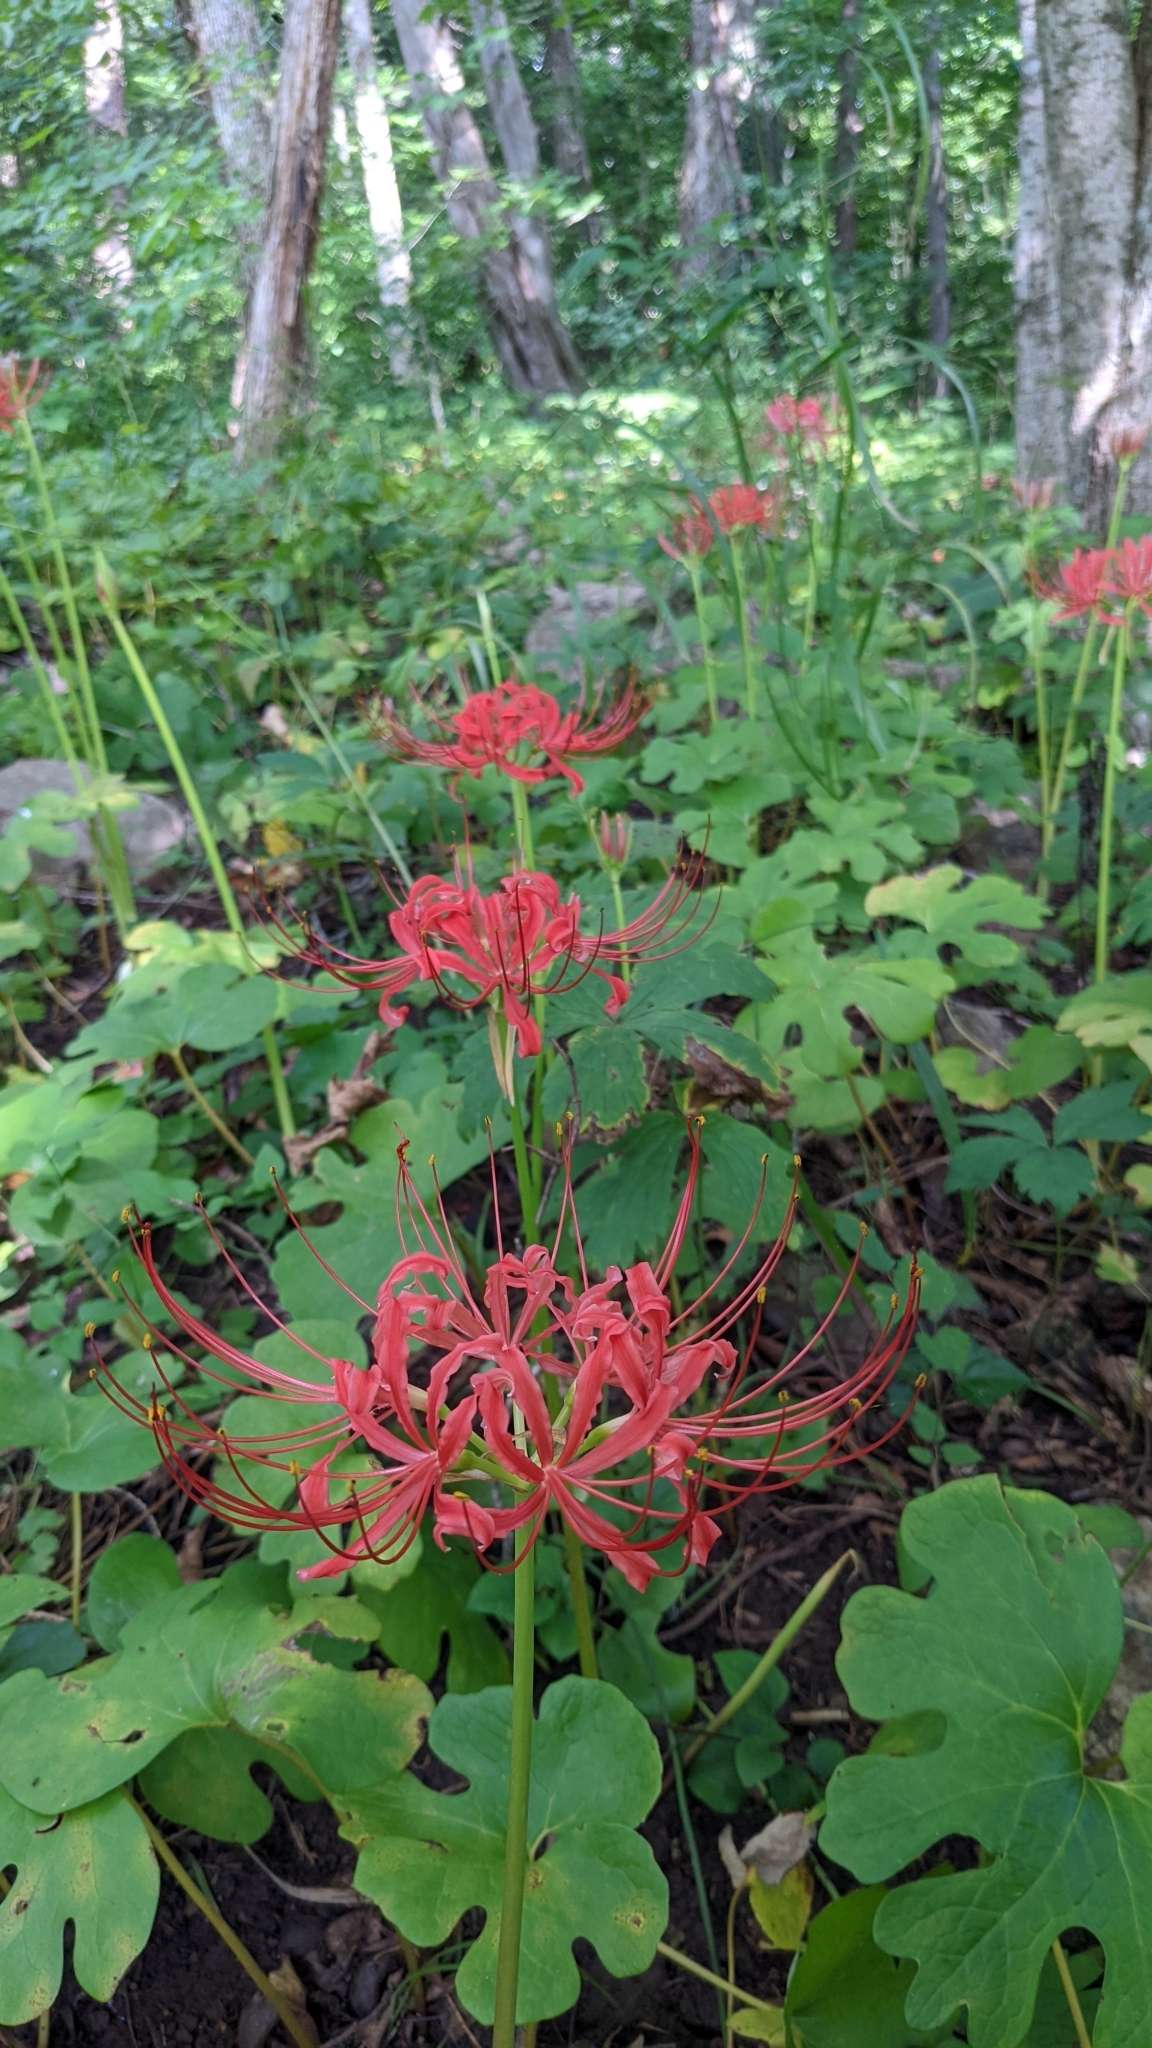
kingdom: Plantae
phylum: Tracheophyta
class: Liliopsida
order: Asparagales
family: Amaryllidaceae
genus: Lycoris
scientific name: Lycoris radiata
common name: Red spider lily
